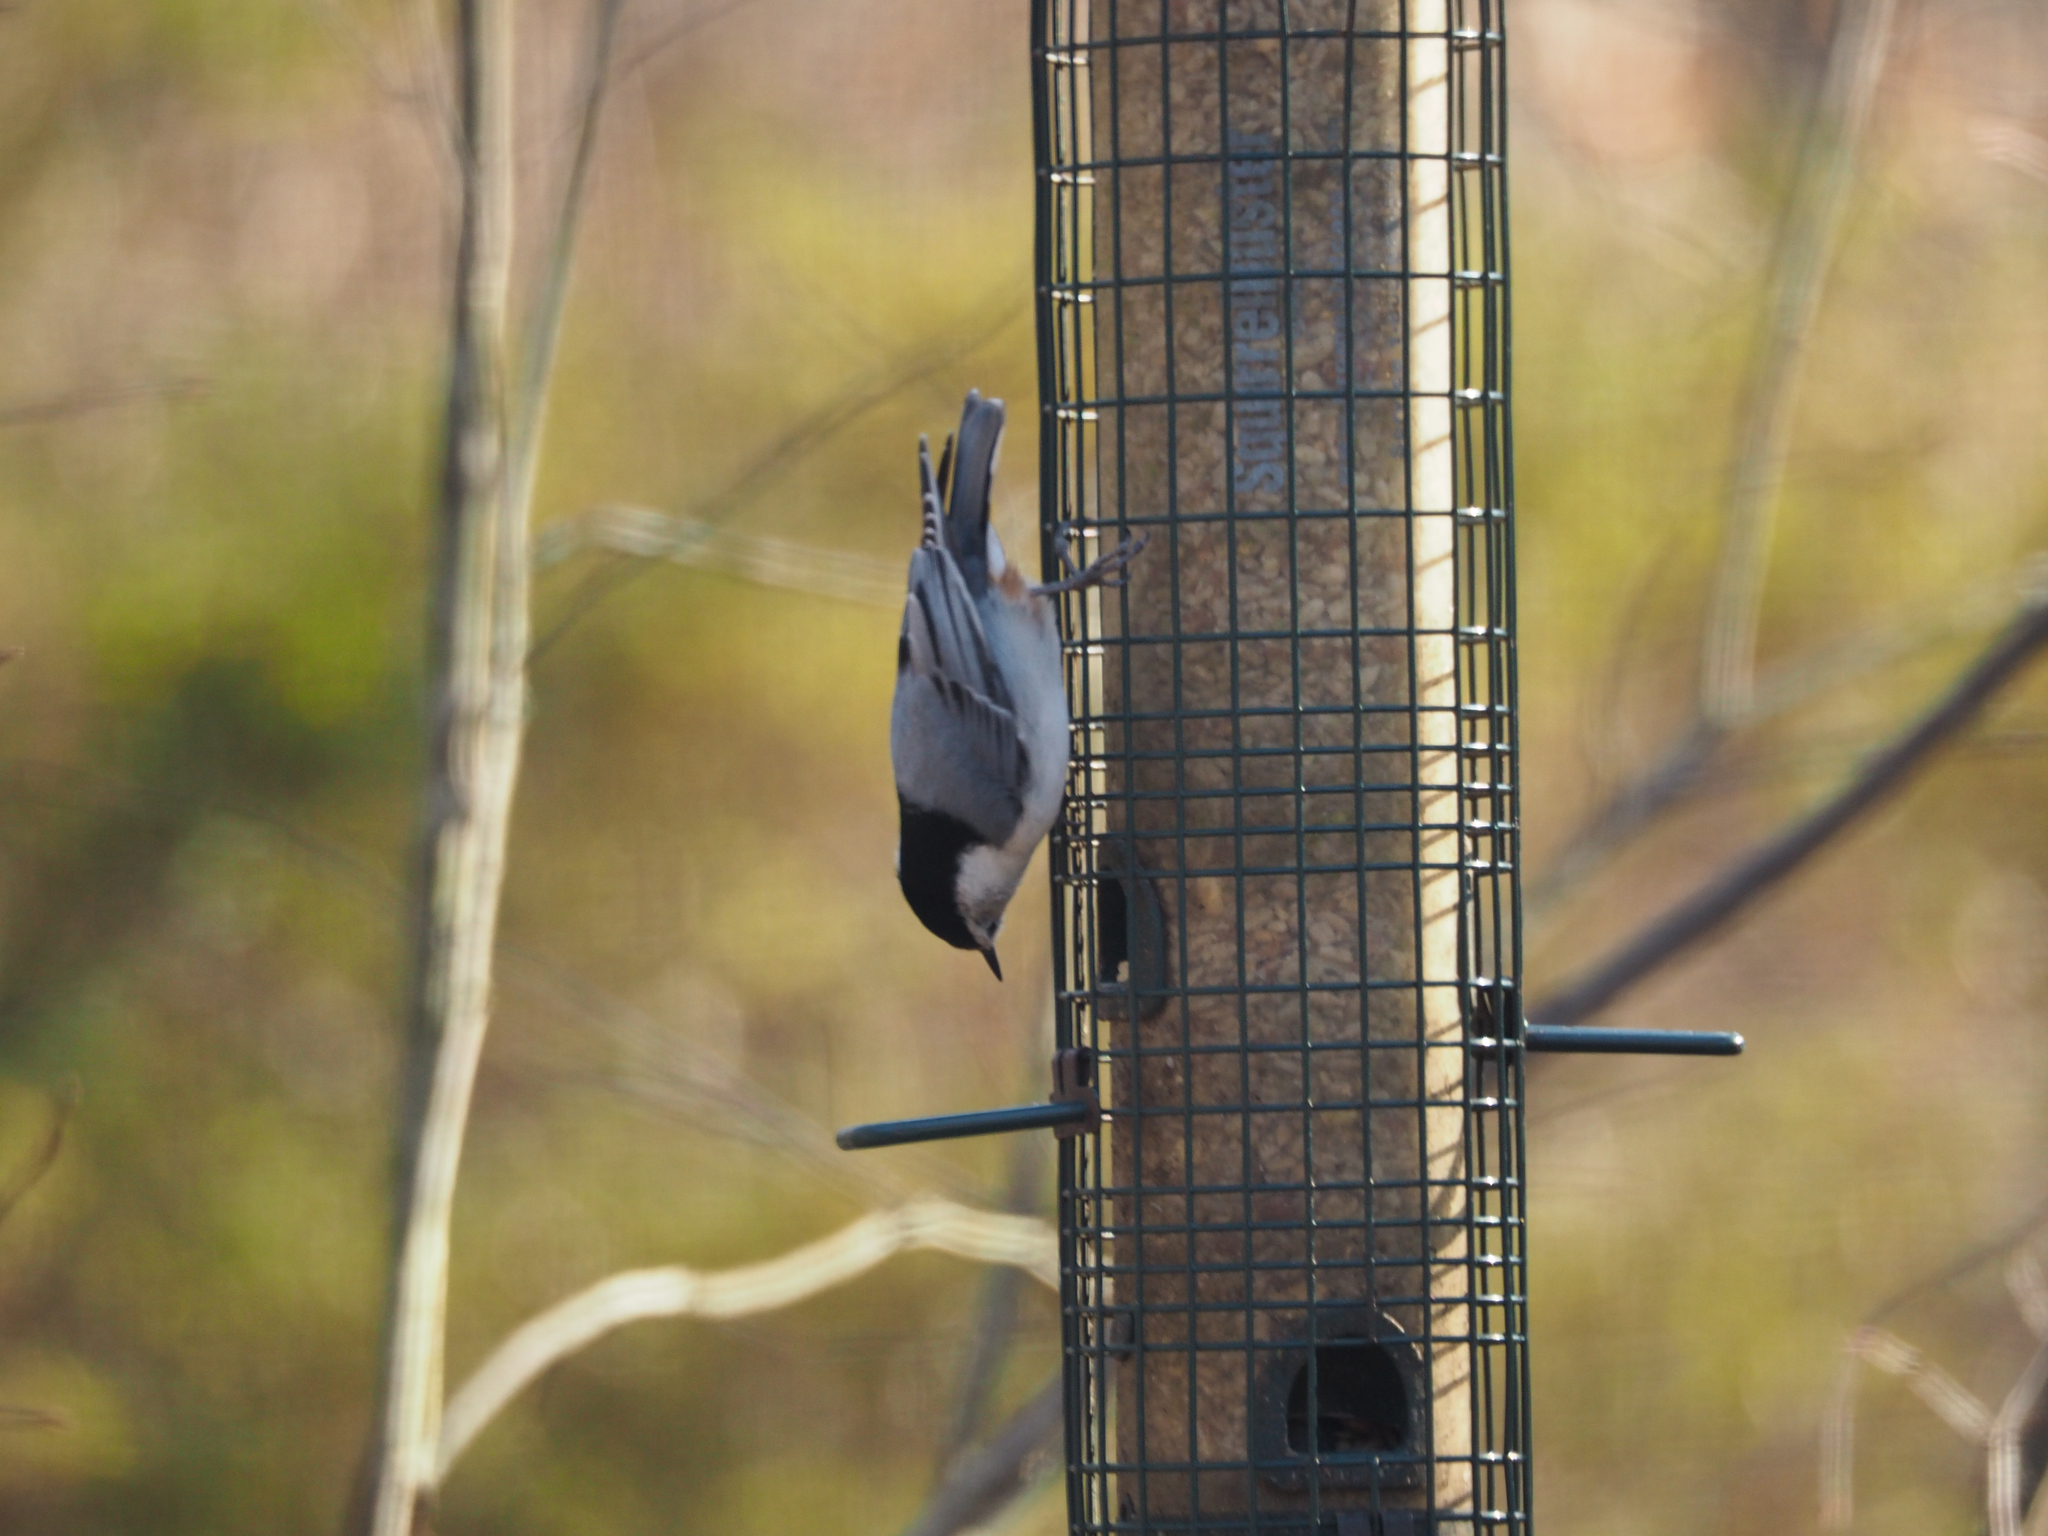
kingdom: Animalia
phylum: Chordata
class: Aves
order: Passeriformes
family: Sittidae
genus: Sitta
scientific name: Sitta carolinensis
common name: White-breasted nuthatch
